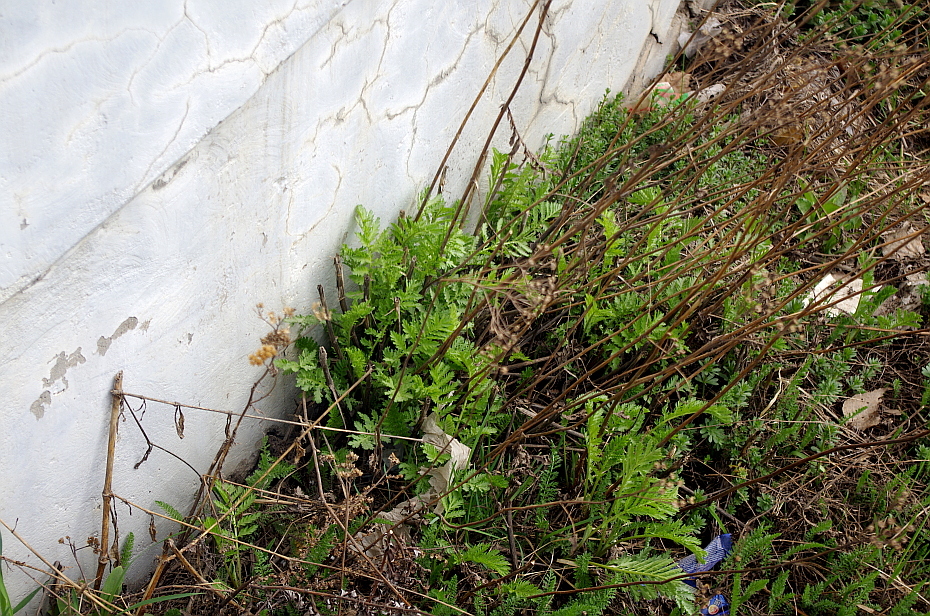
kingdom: Plantae
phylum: Tracheophyta
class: Magnoliopsida
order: Asterales
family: Asteraceae
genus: Tanacetum
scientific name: Tanacetum vulgare
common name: Common tansy
